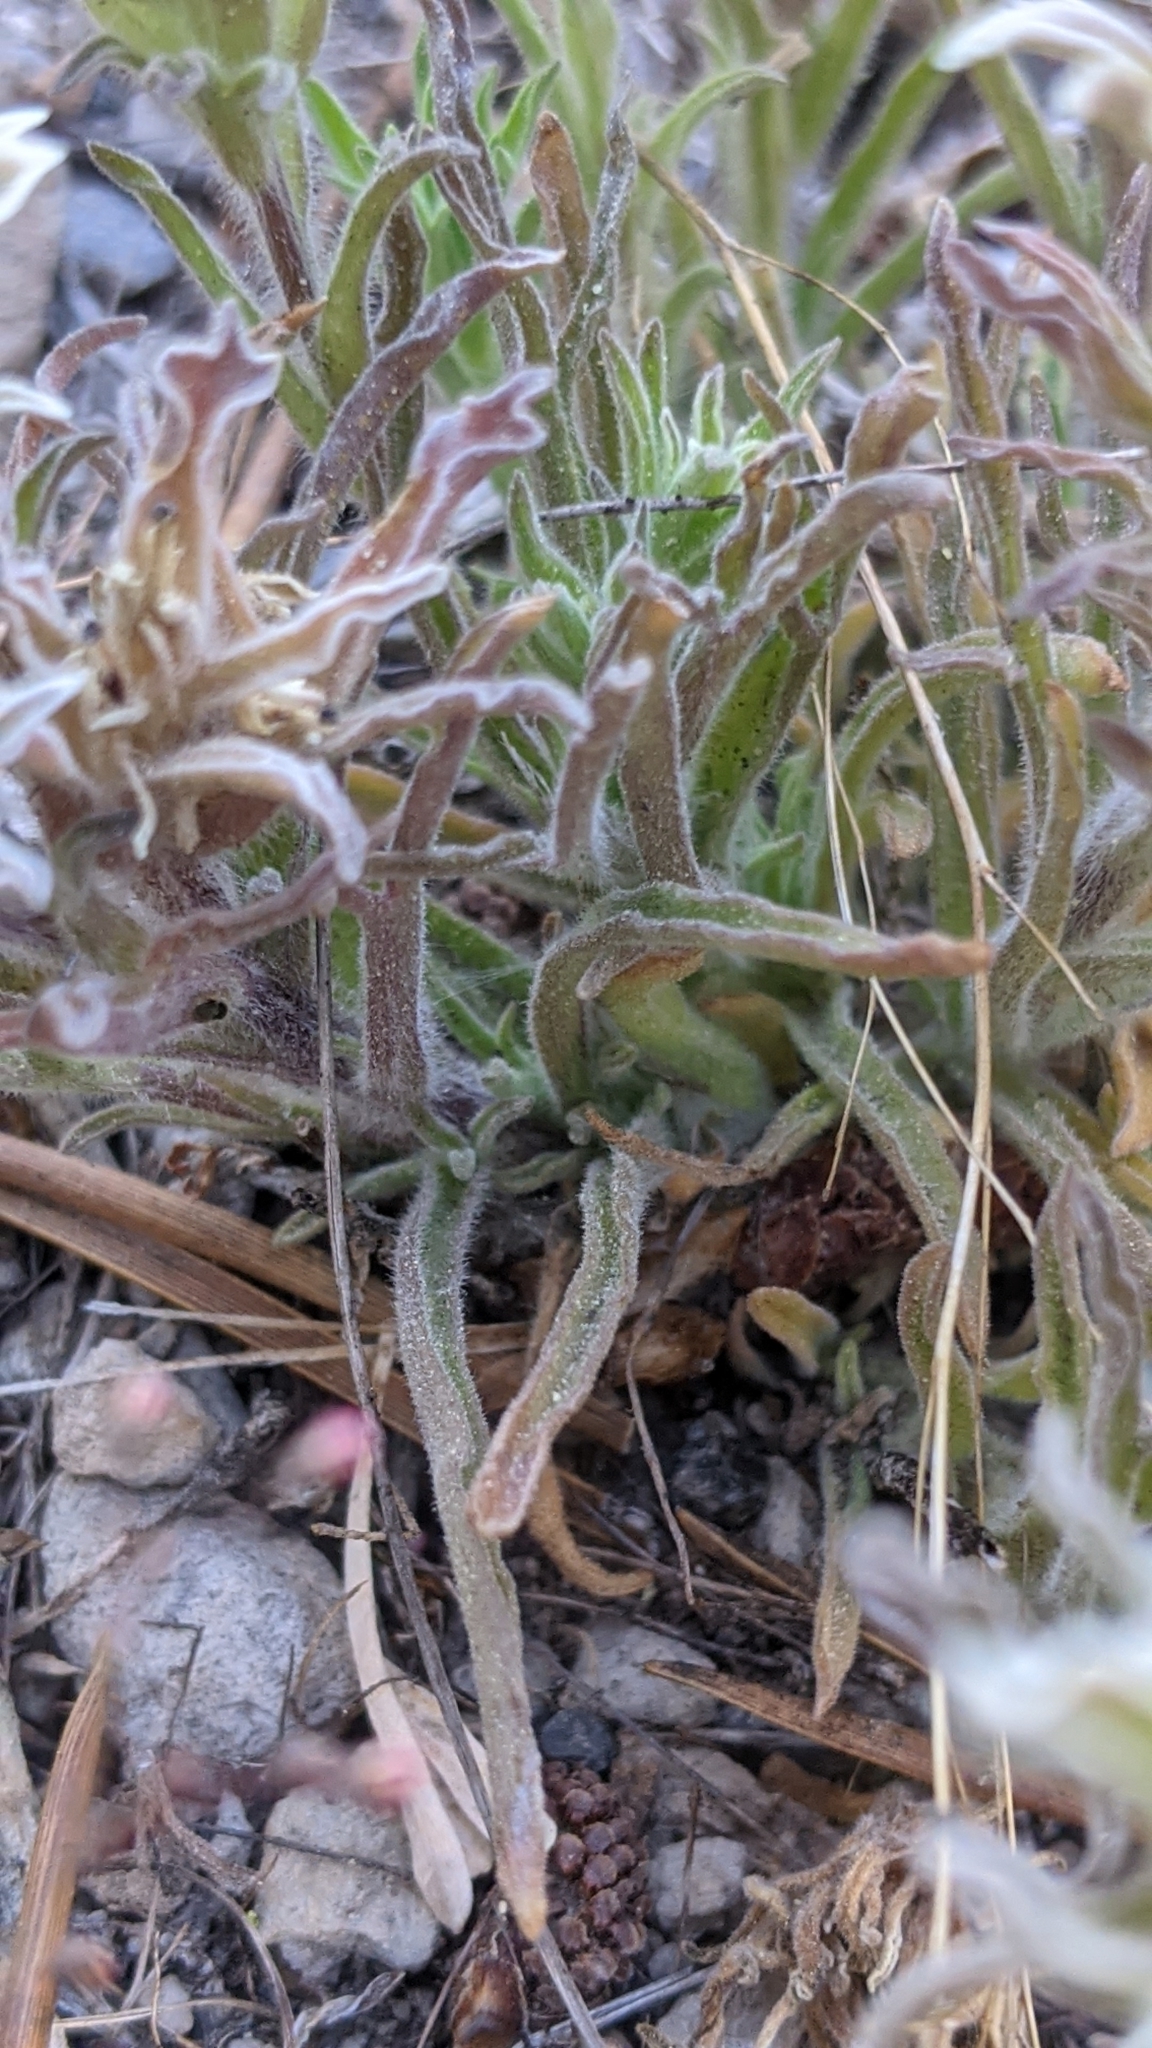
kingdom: Plantae
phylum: Tracheophyta
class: Magnoliopsida
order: Lamiales
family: Orobanchaceae
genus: Castilleja
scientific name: Castilleja nana
